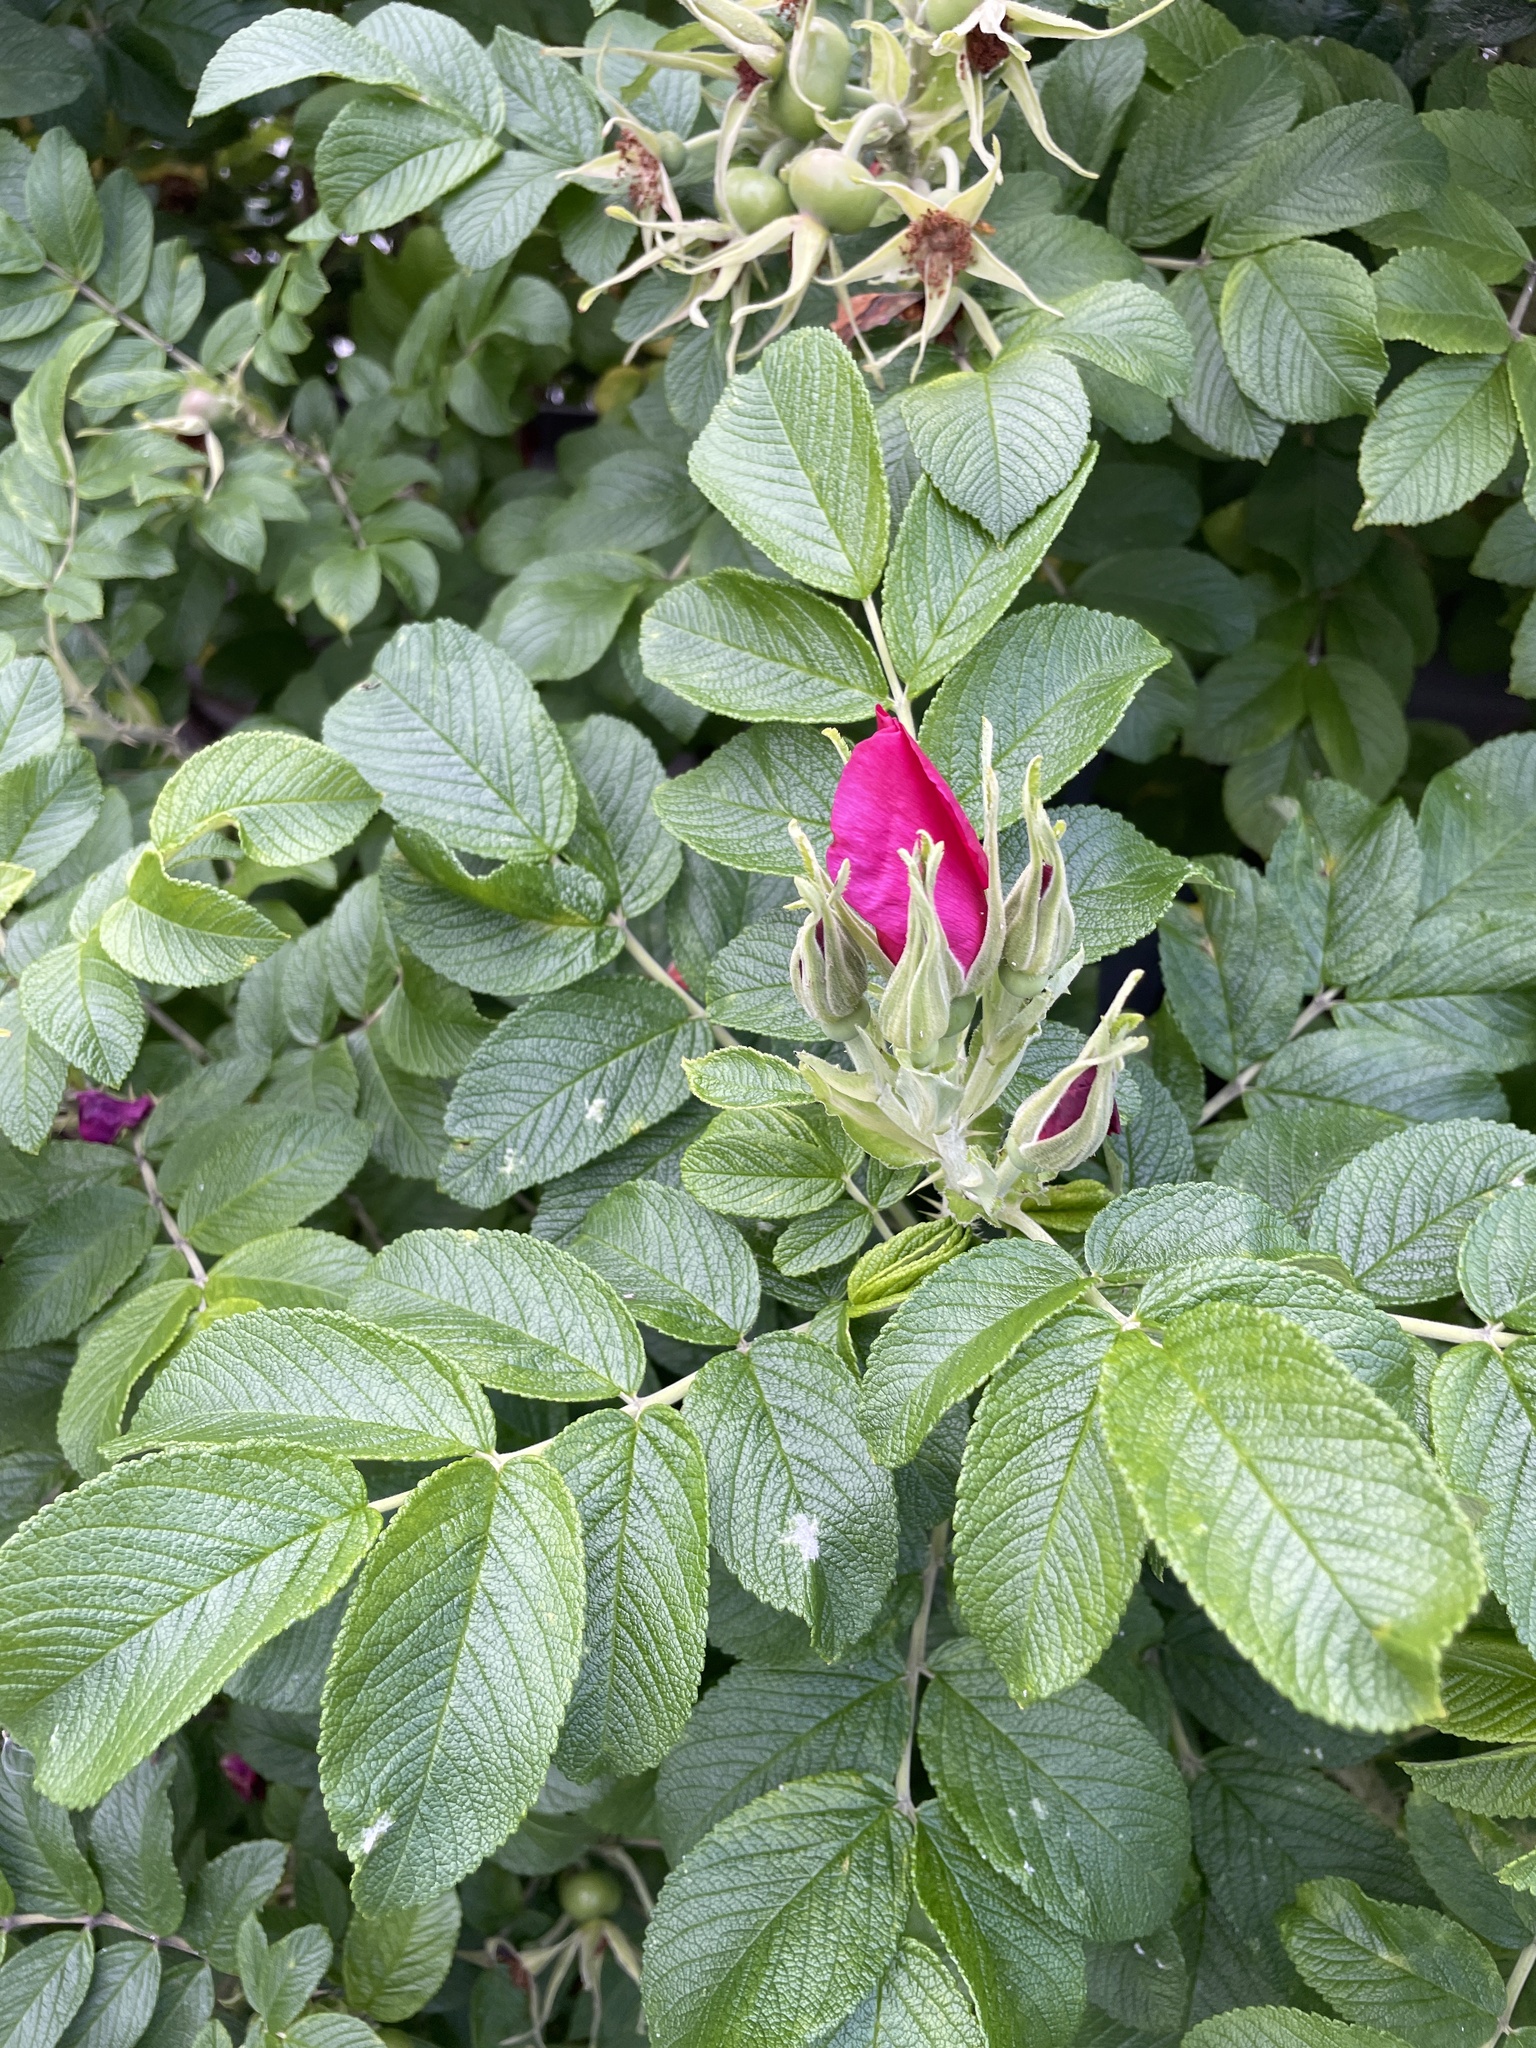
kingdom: Plantae
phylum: Tracheophyta
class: Magnoliopsida
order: Rosales
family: Rosaceae
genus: Rosa
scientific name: Rosa rugosa
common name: Japanese rose
